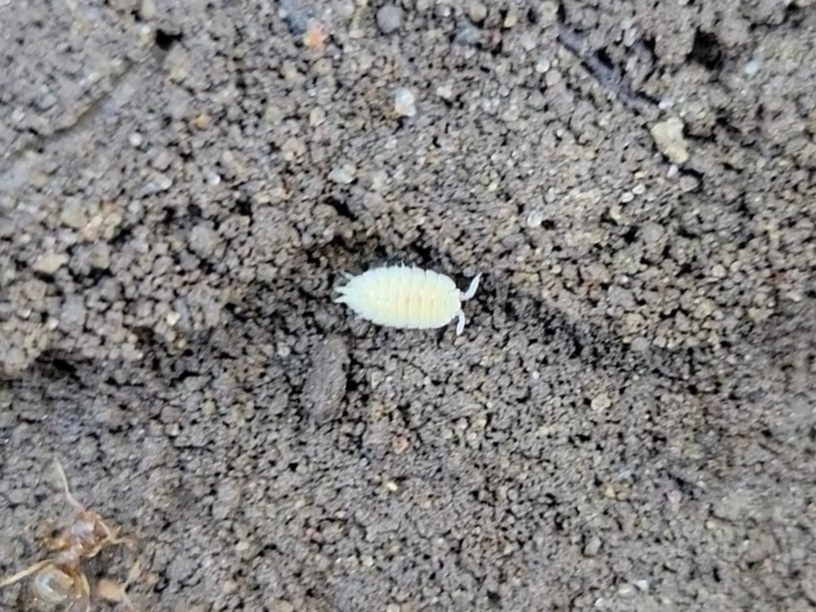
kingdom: Animalia
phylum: Arthropoda
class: Malacostraca
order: Isopoda
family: Platyarthridae
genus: Platyarthrus
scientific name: Platyarthrus hoffmannseggii
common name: Ant woodlouse
